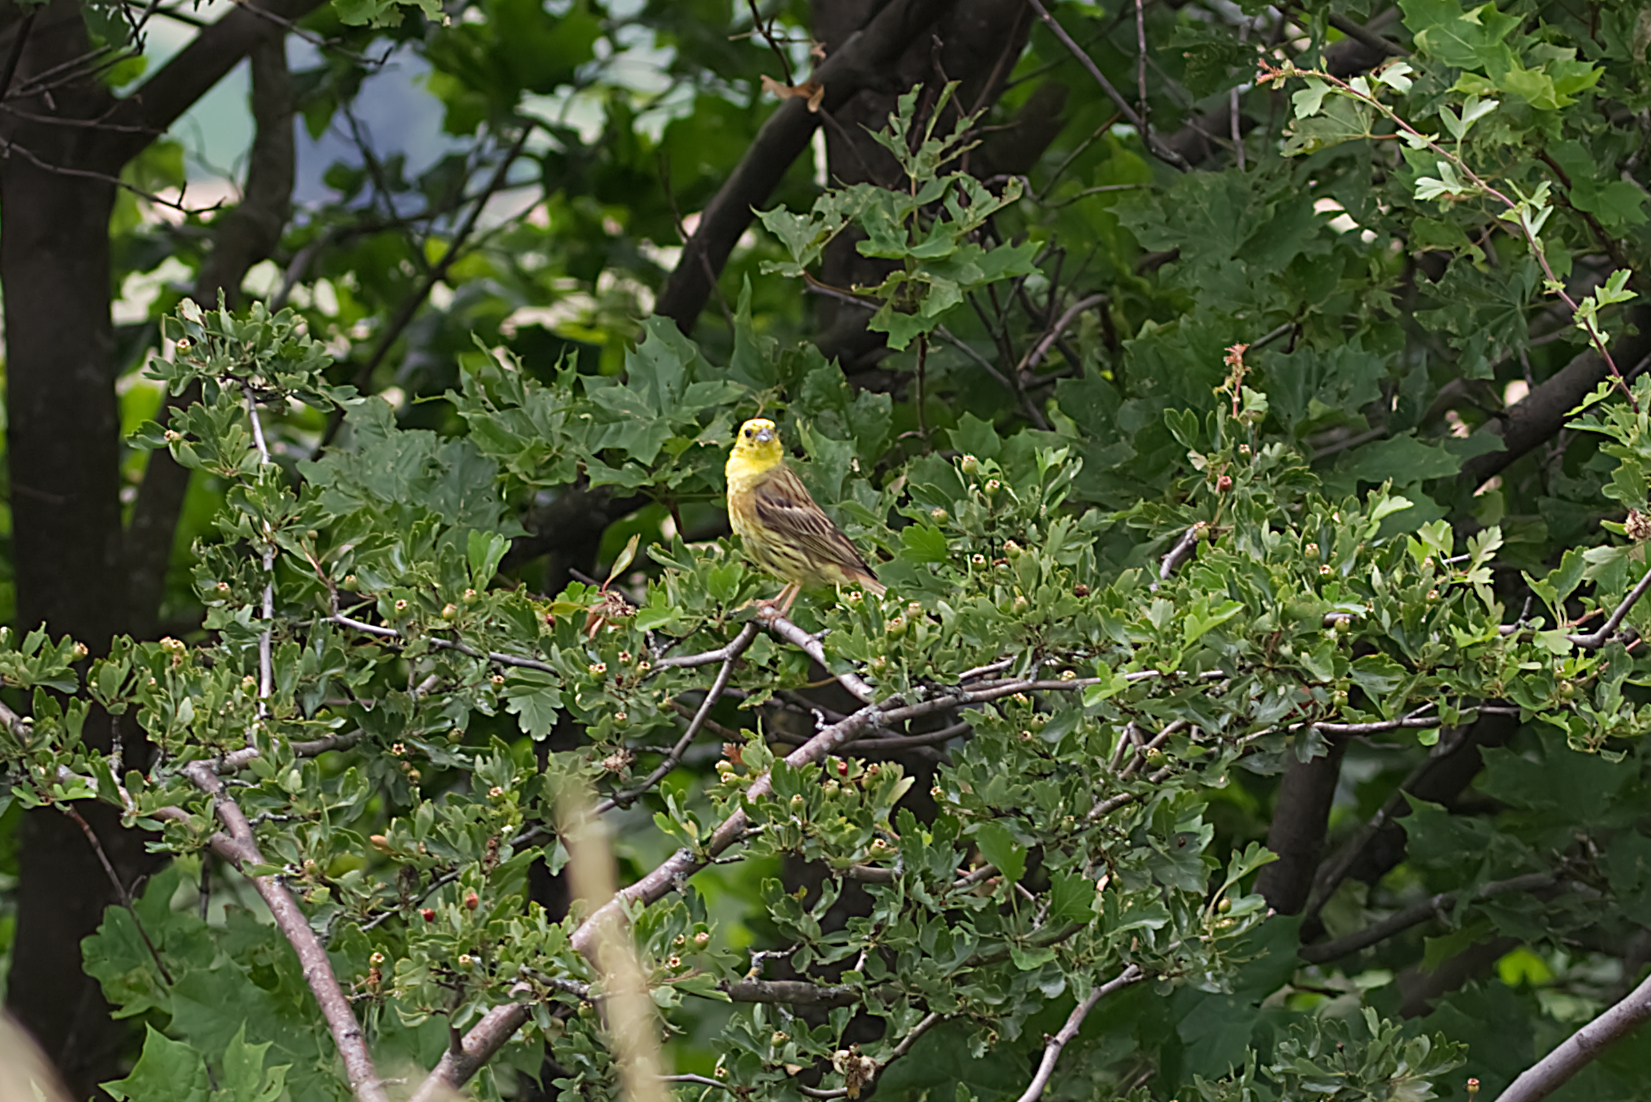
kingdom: Animalia
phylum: Chordata
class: Aves
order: Passeriformes
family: Emberizidae
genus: Emberiza
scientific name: Emberiza citrinella
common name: Yellowhammer
